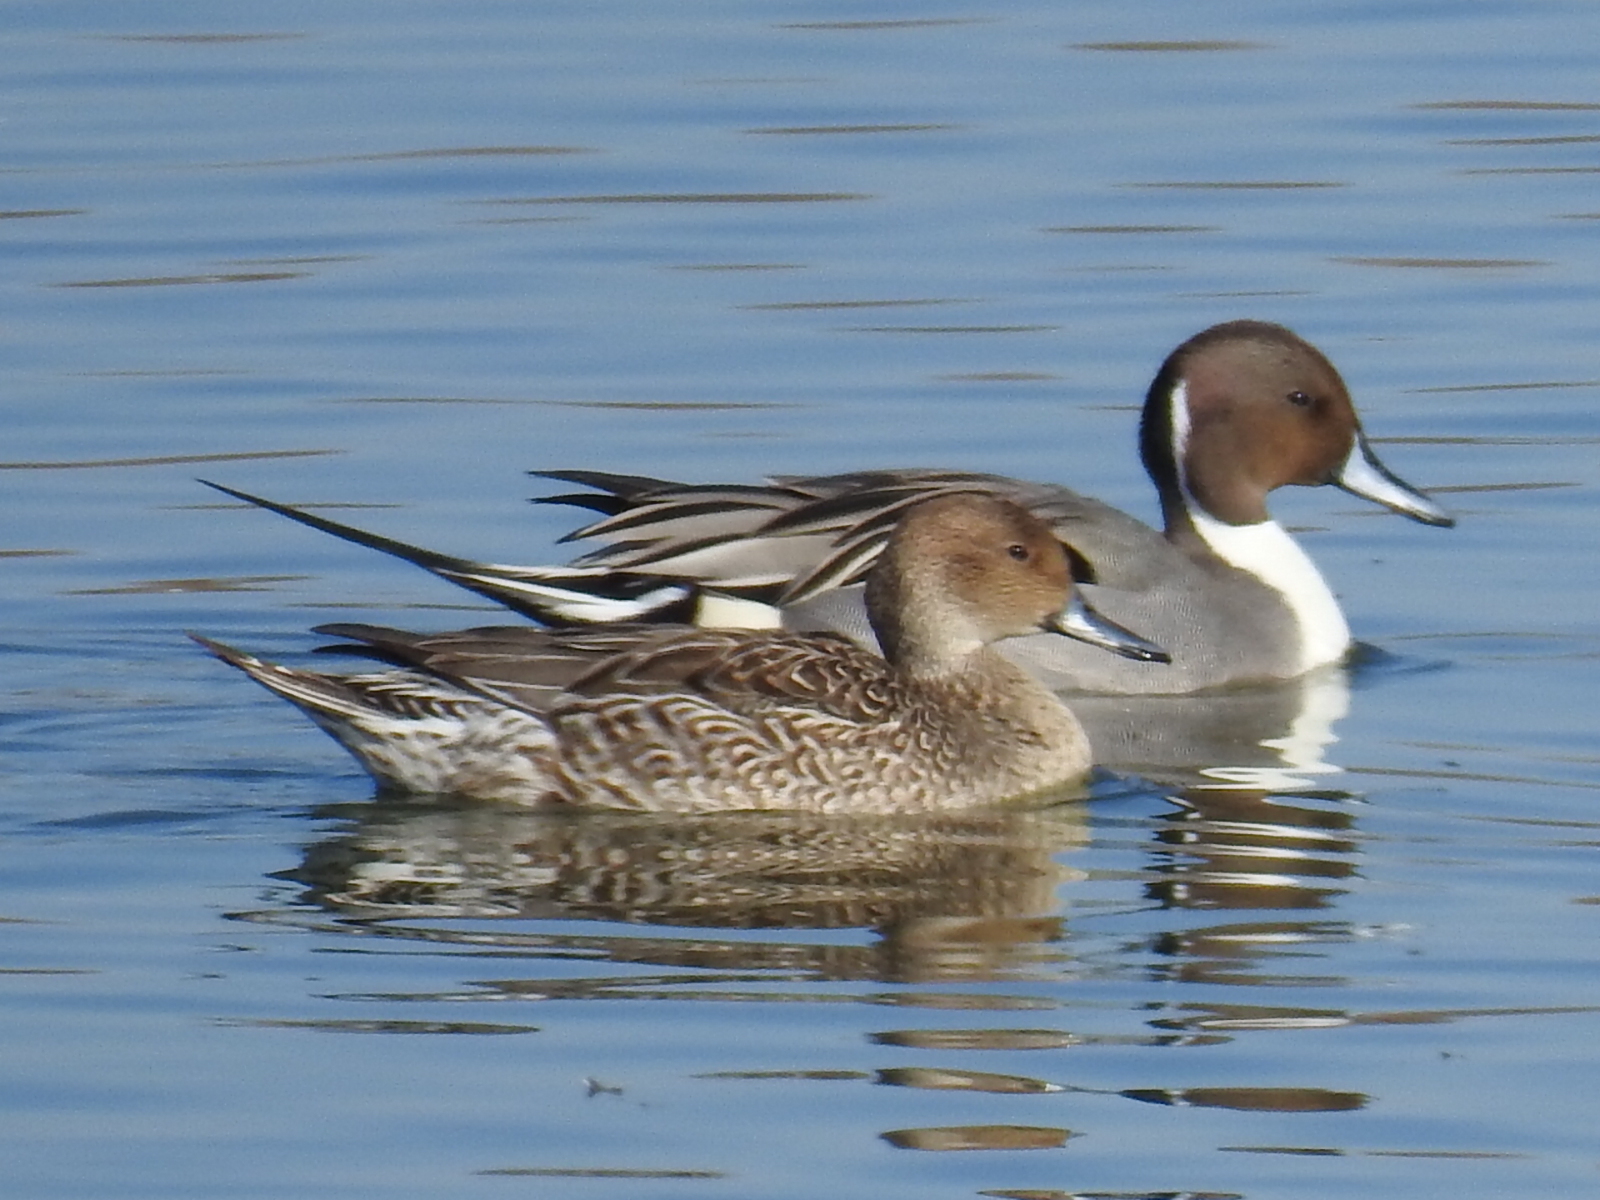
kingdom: Animalia
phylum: Chordata
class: Aves
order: Anseriformes
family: Anatidae
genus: Anas
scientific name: Anas acuta
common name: Northern pintail
